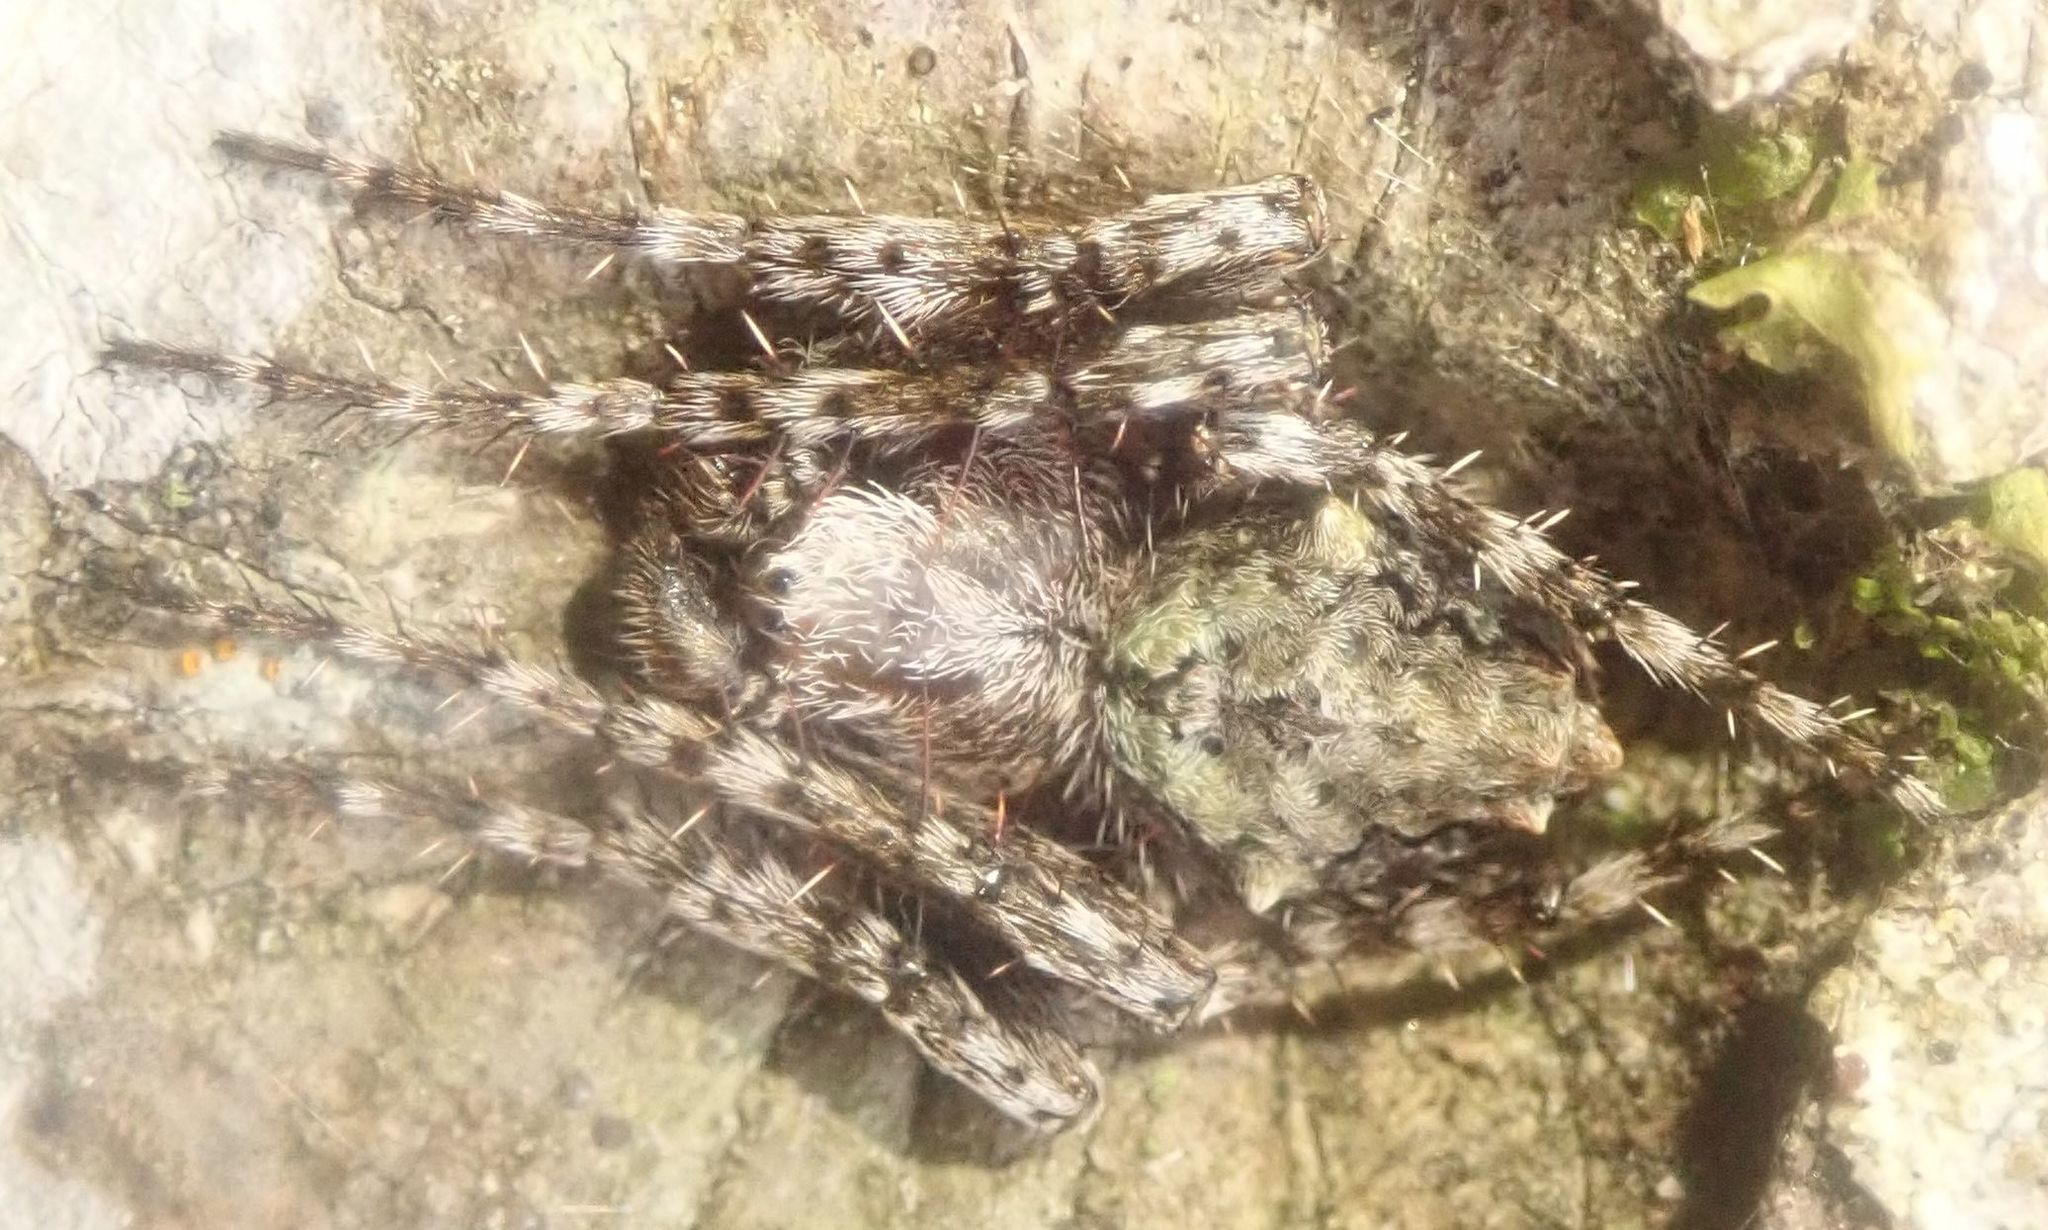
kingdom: Animalia
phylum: Arthropoda
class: Arachnida
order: Araneae
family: Araneidae
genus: Eriophora
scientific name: Eriophora pustulosa
